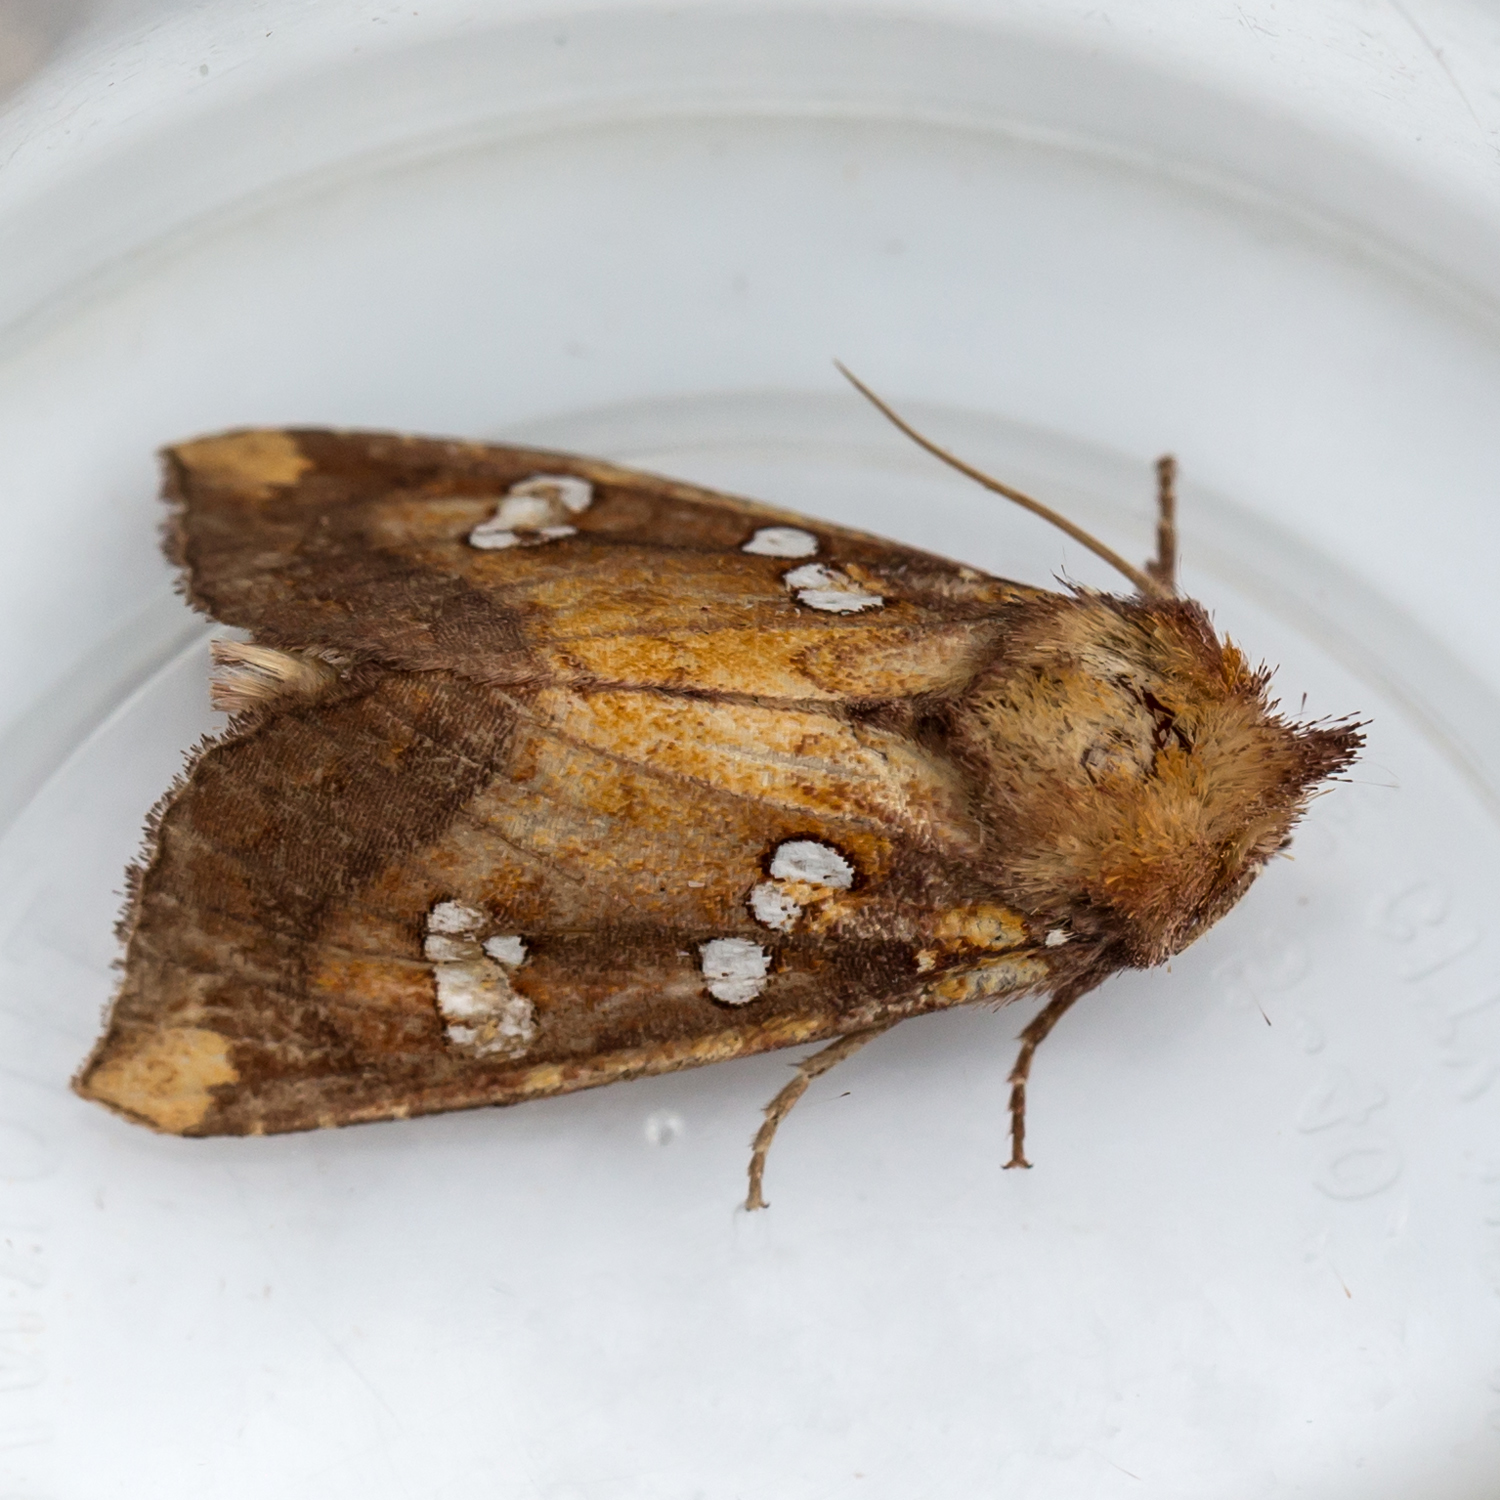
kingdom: Animalia
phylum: Arthropoda
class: Insecta
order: Lepidoptera
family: Noctuidae
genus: Papaipema
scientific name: Papaipema baptisiae
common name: Wild indigo borer moth
